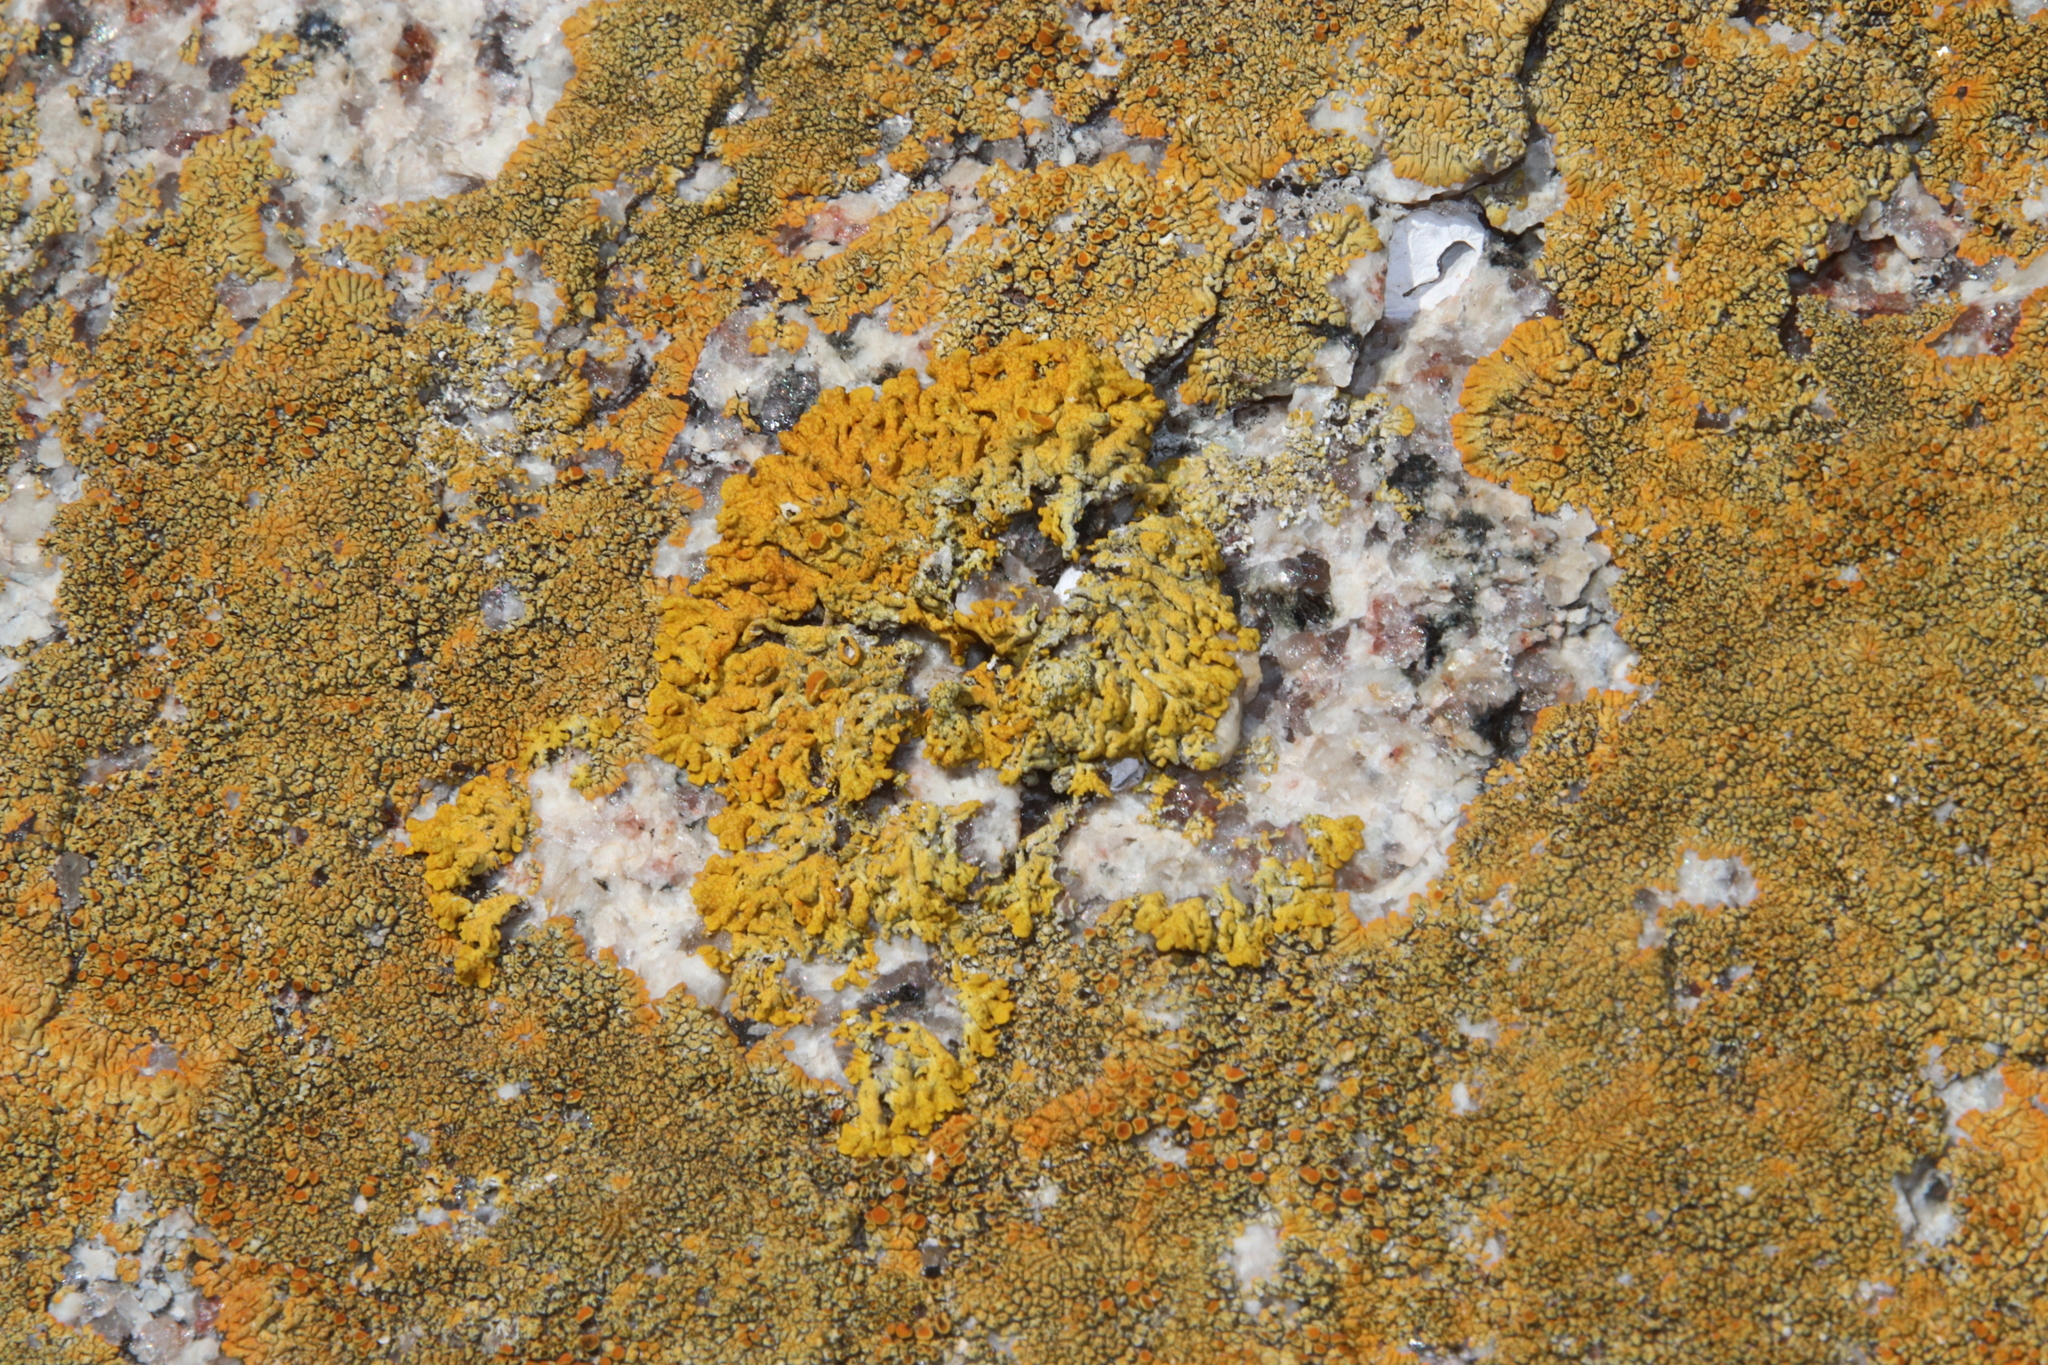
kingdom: Fungi
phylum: Ascomycota
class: Lecanoromycetes
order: Teloschistales
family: Teloschistaceae
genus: Dufourea
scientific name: Dufourea capensis
